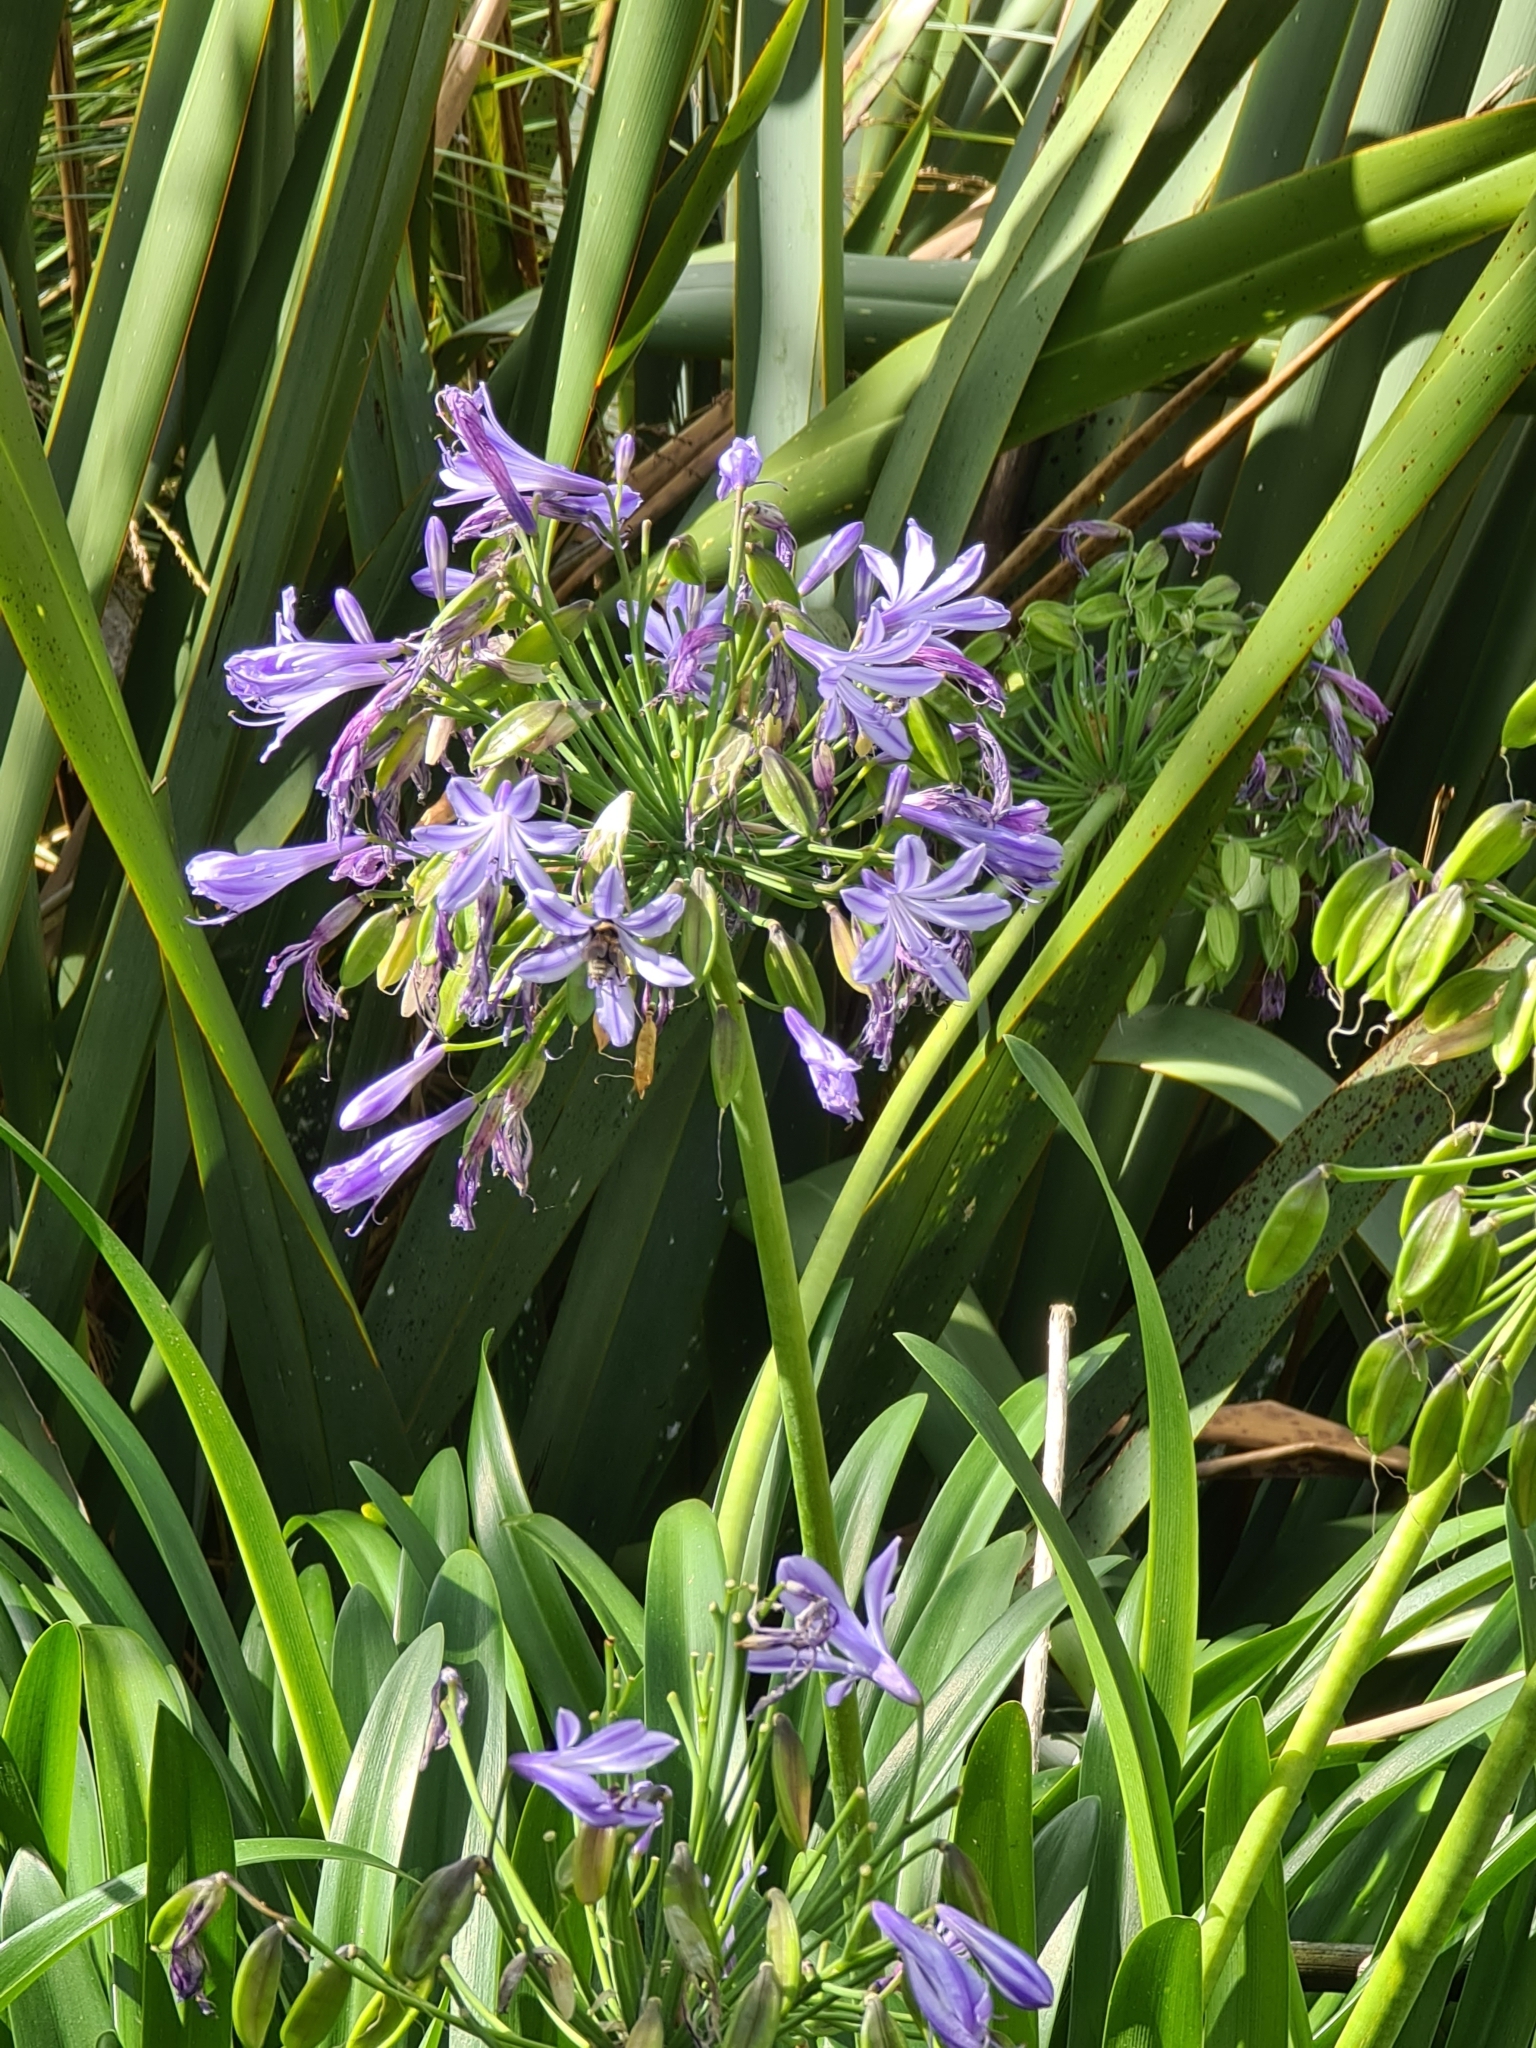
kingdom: Plantae
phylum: Tracheophyta
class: Liliopsida
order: Asparagales
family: Amaryllidaceae
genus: Agapanthus
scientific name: Agapanthus praecox
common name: African-lily
